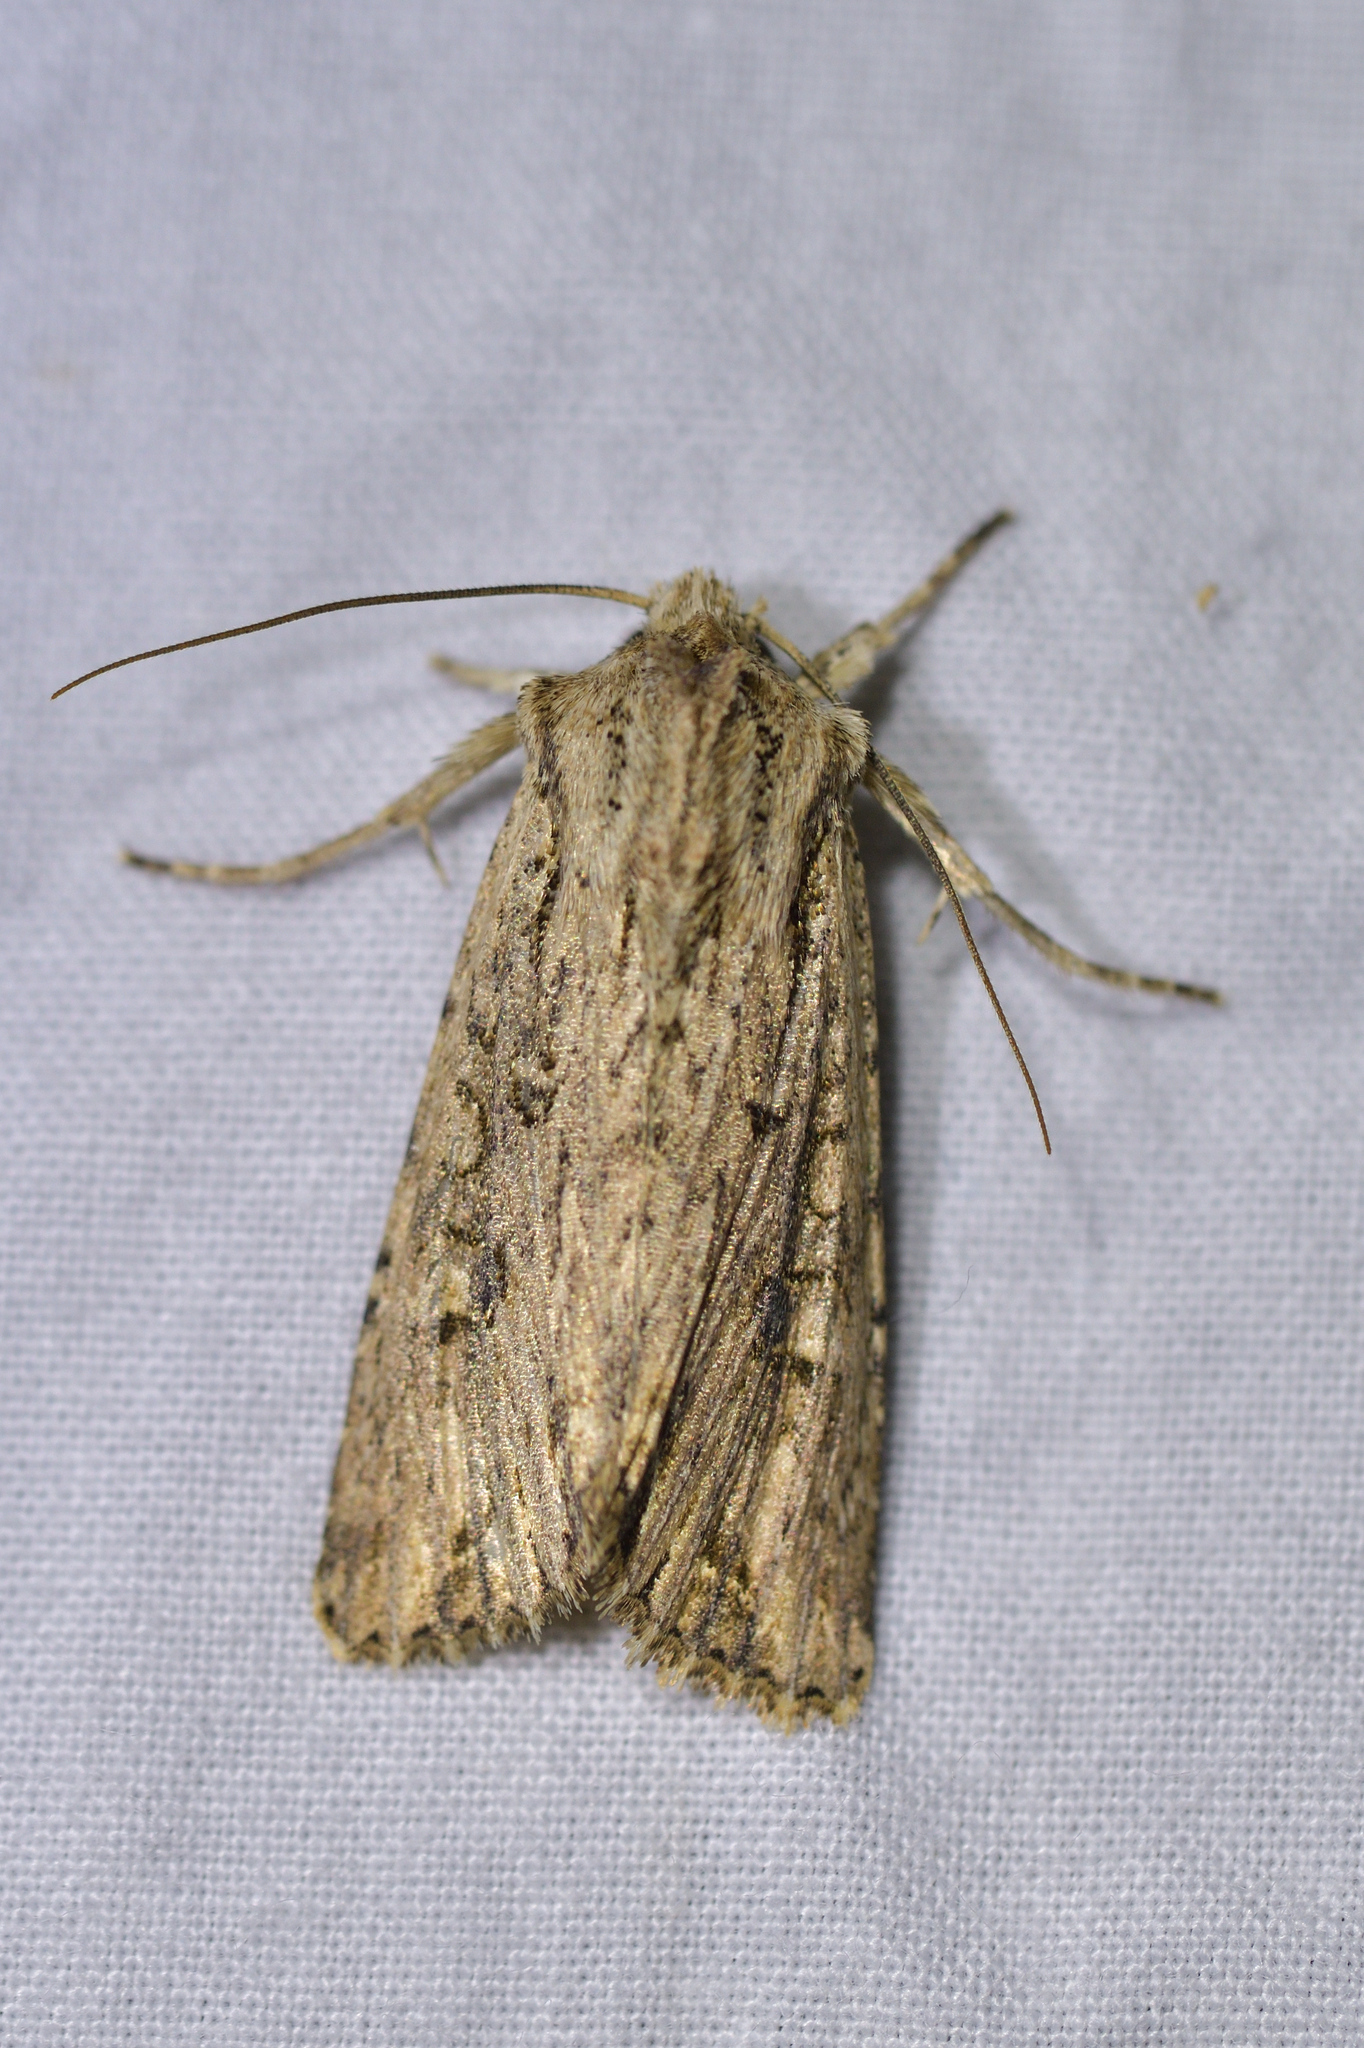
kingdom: Animalia
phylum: Arthropoda
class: Insecta
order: Lepidoptera
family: Noctuidae
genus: Ichneutica
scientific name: Ichneutica lignana
